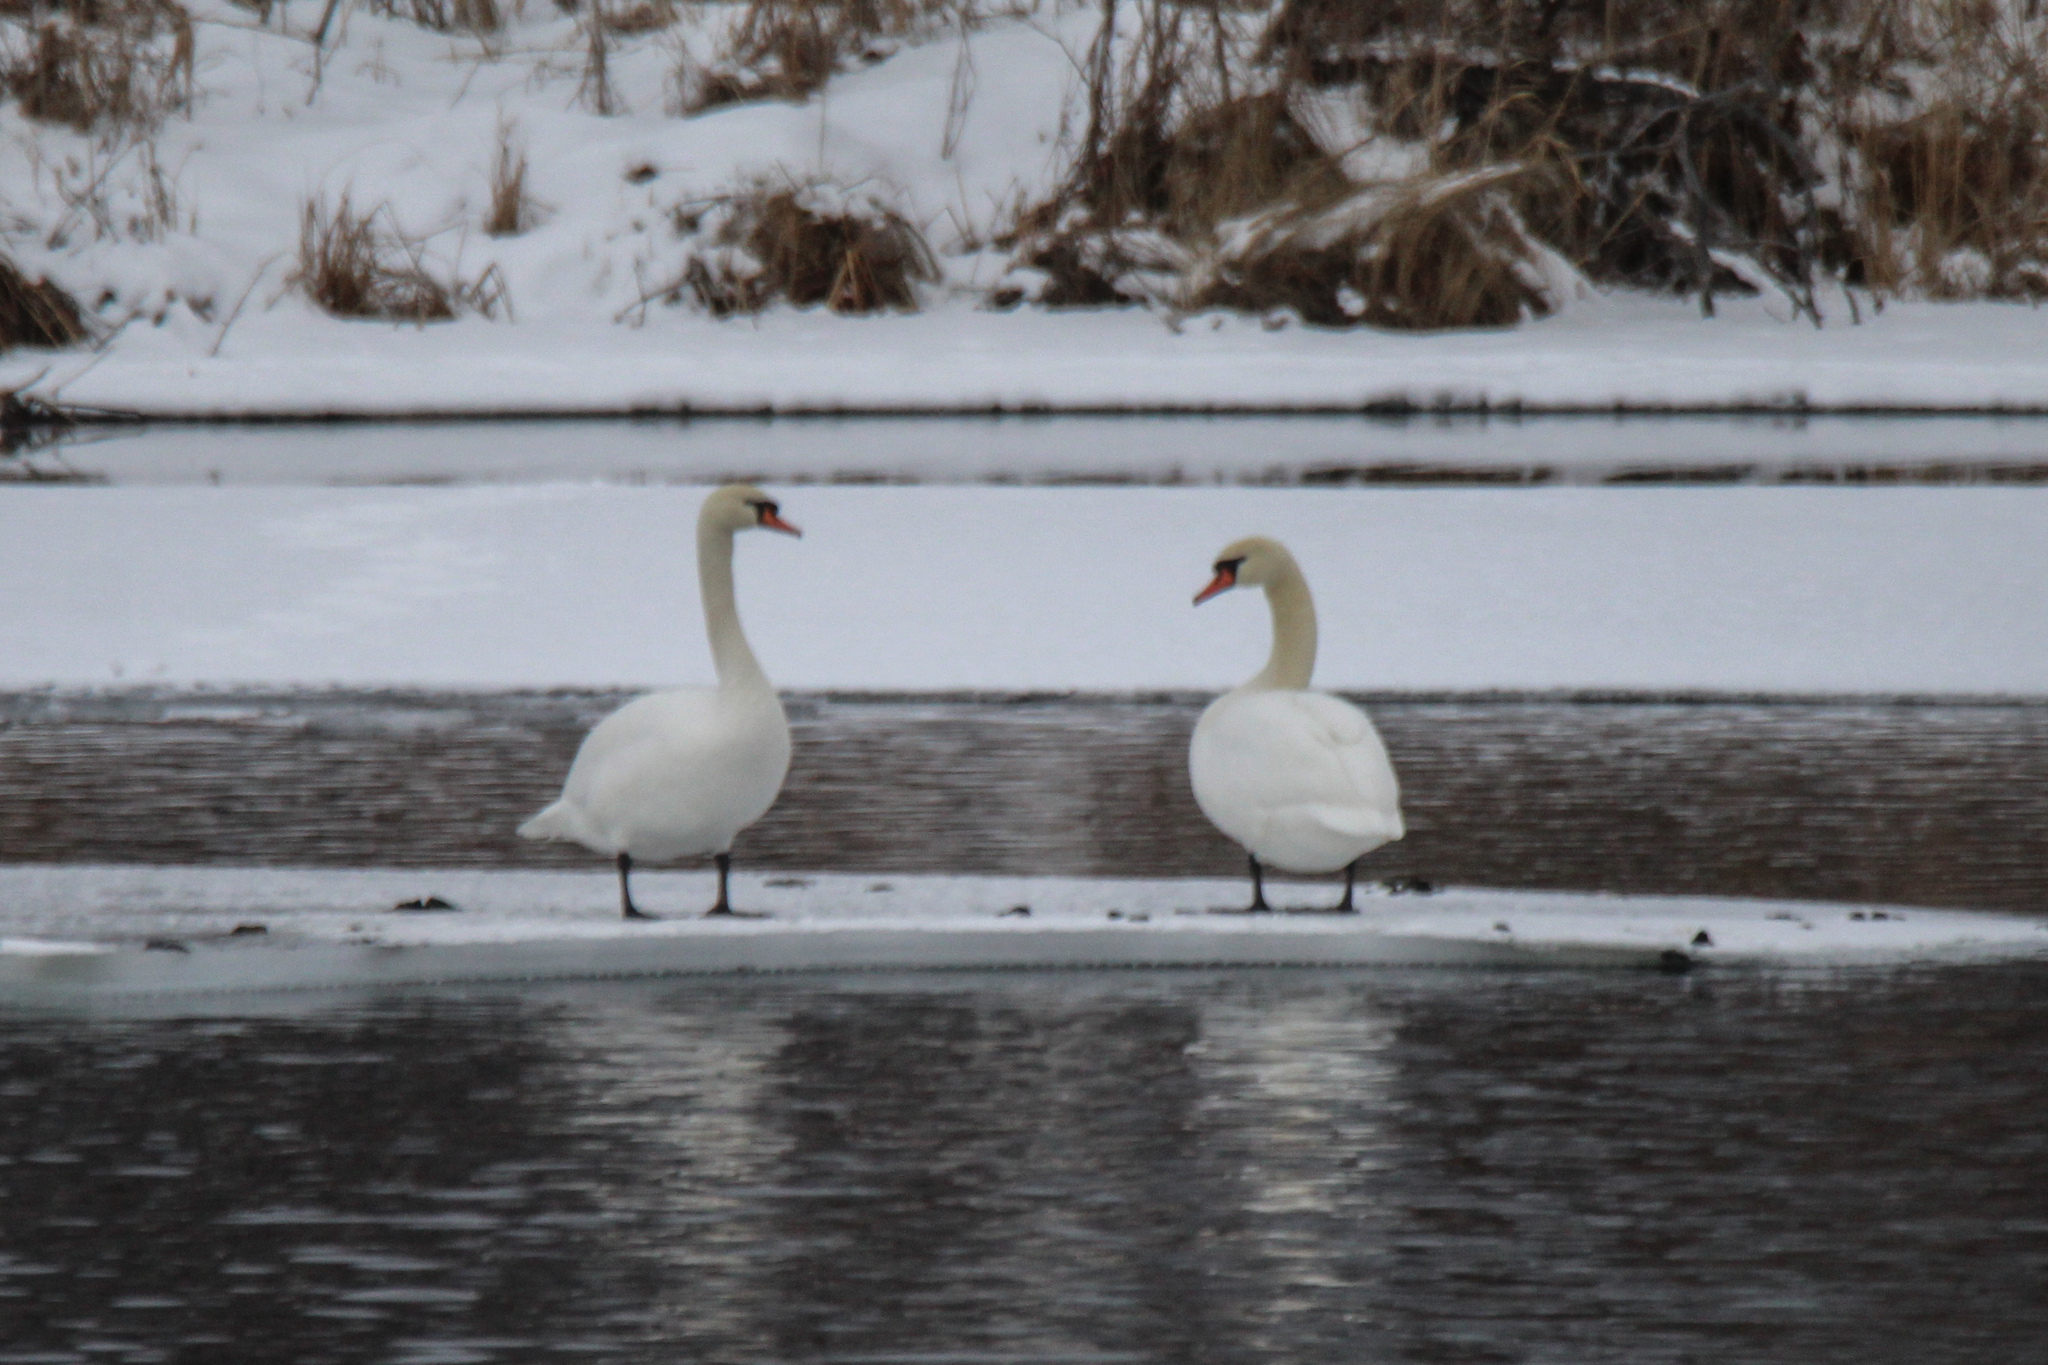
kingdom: Animalia
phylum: Chordata
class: Aves
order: Anseriformes
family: Anatidae
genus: Cygnus
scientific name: Cygnus olor
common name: Mute swan
